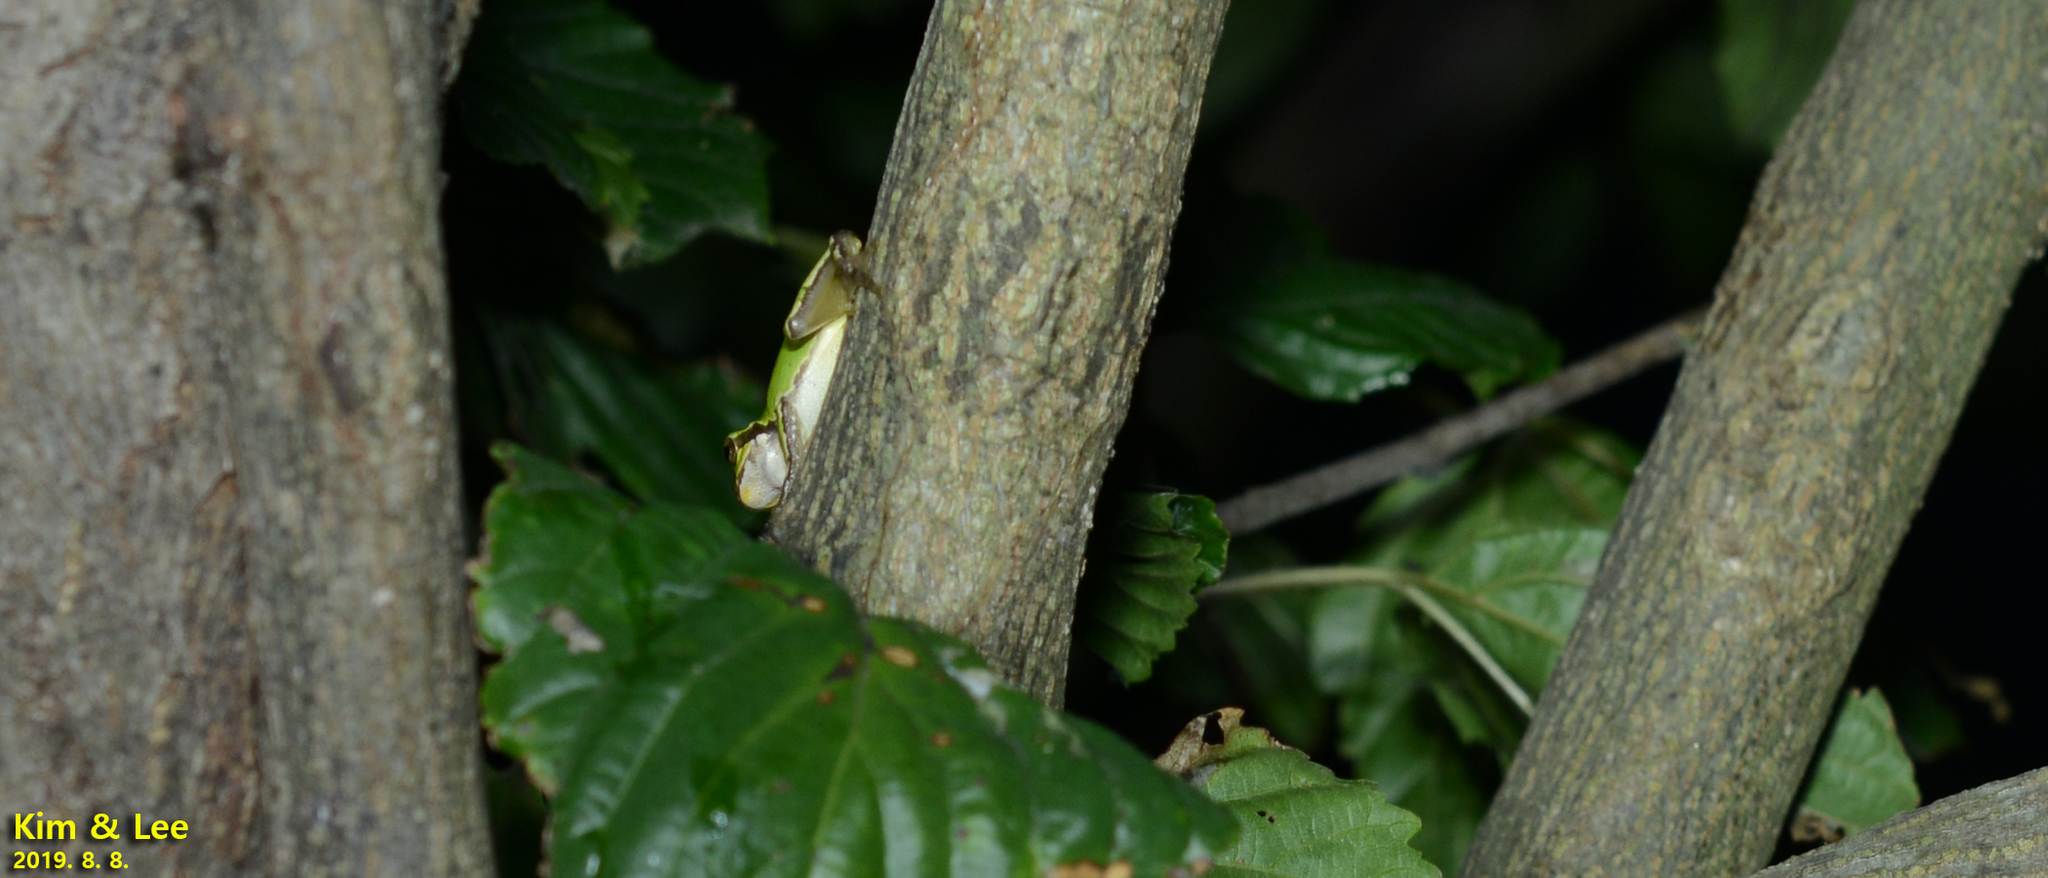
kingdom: Animalia
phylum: Chordata
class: Amphibia
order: Anura
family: Hylidae
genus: Dryophytes
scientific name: Dryophytes japonicus
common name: Japanese treefrog
